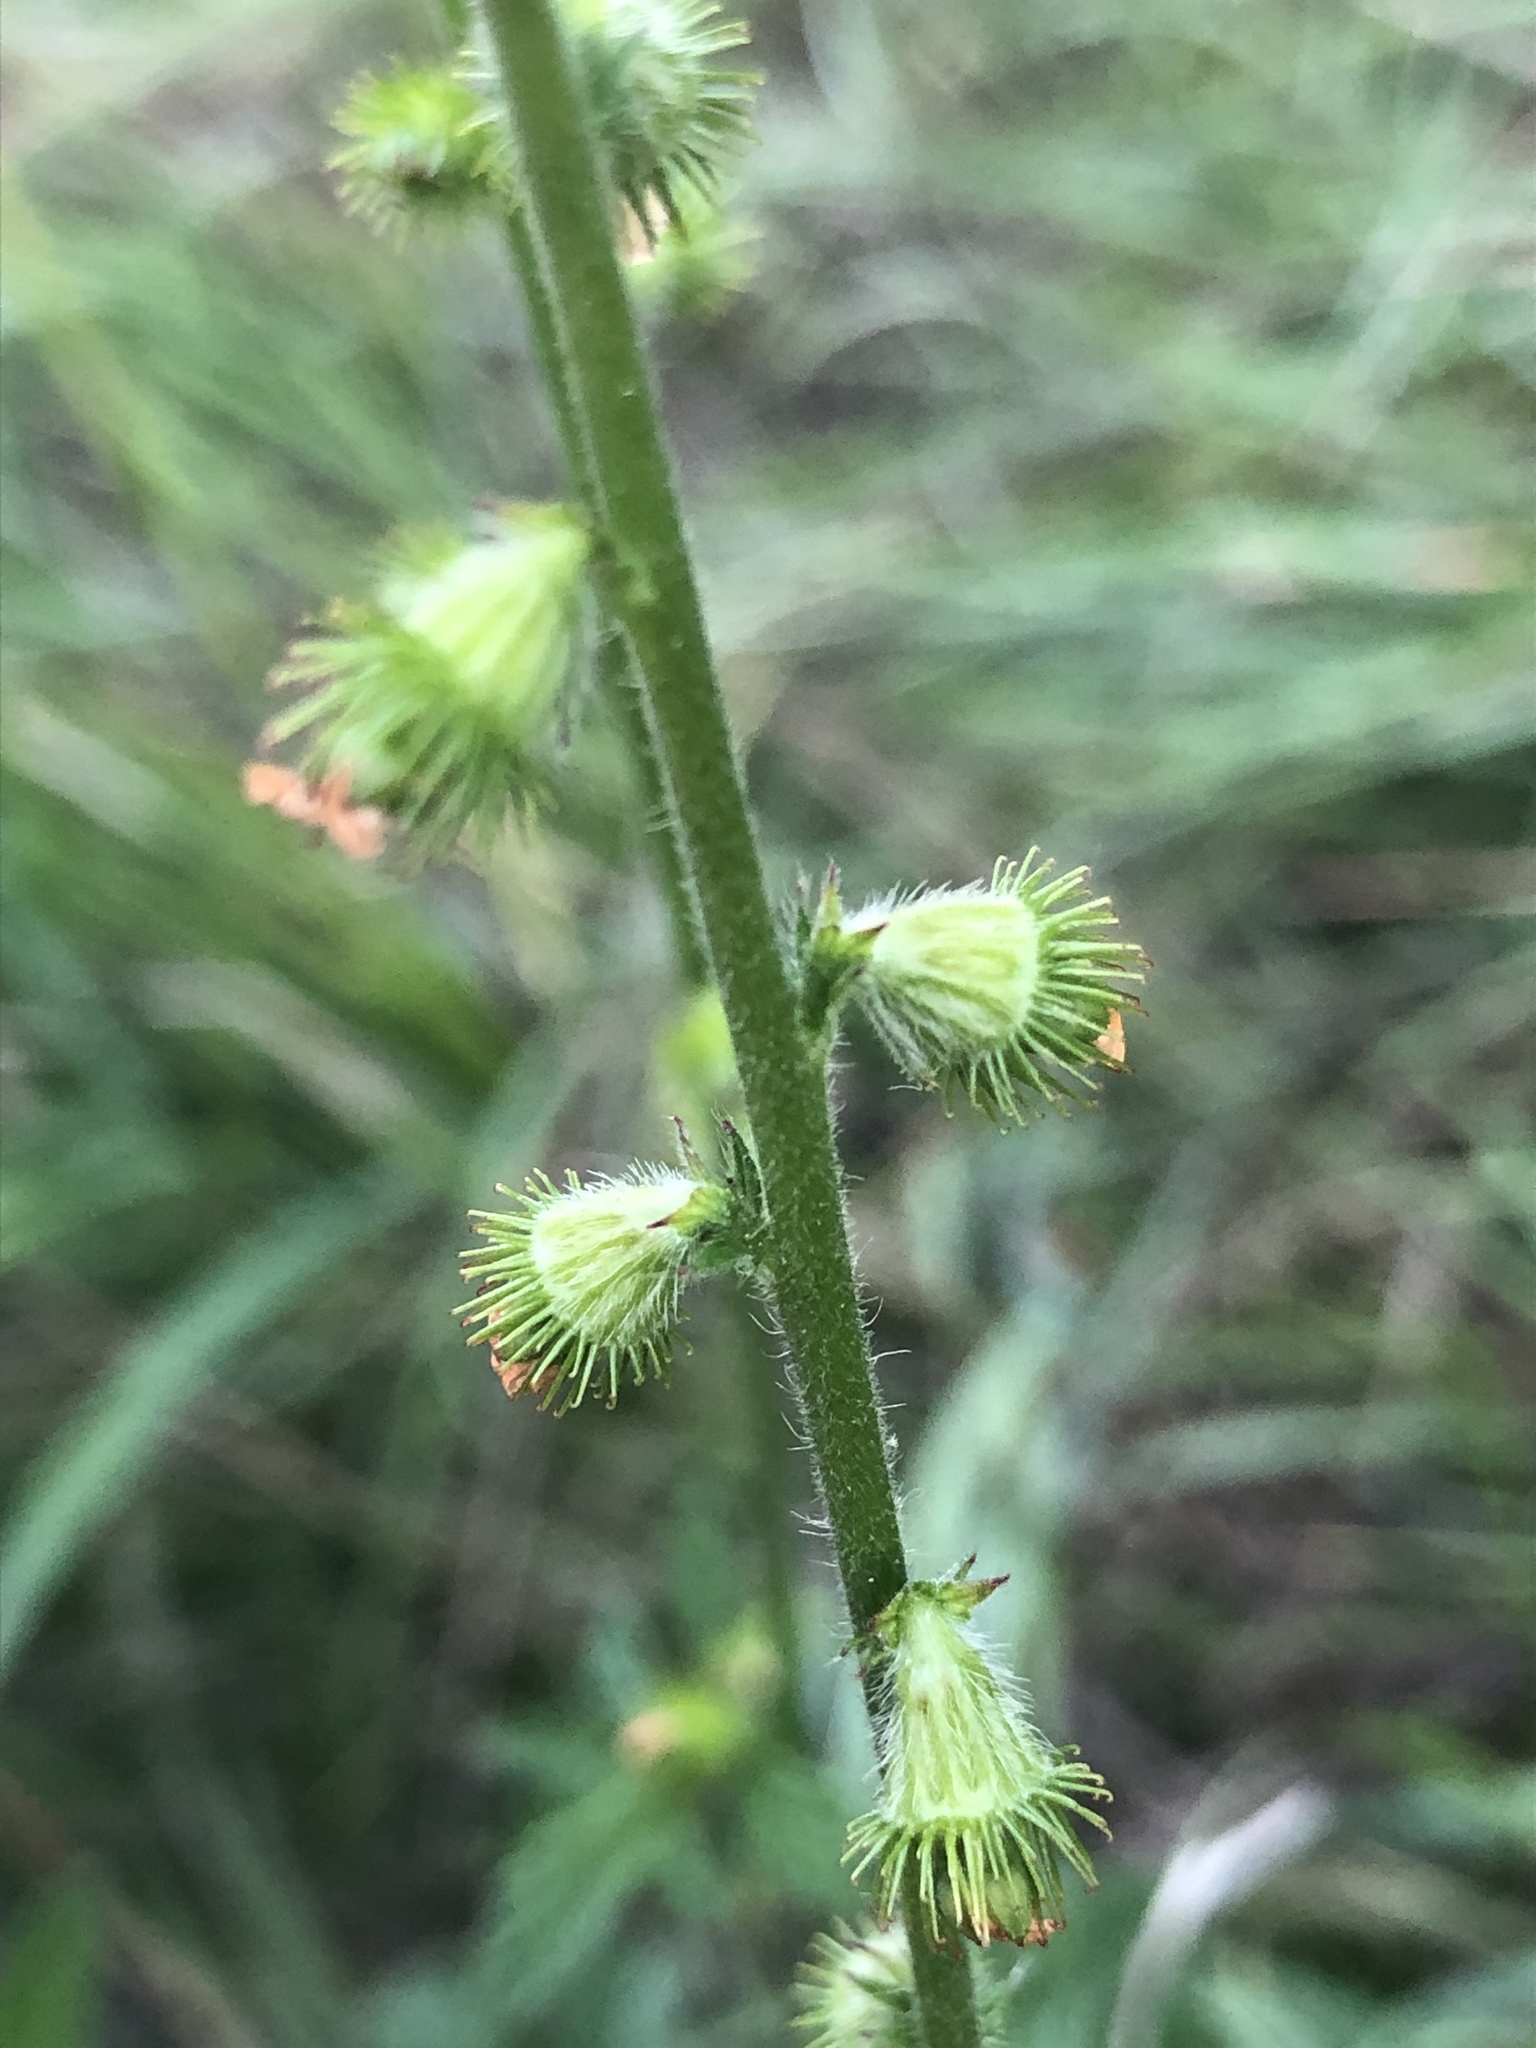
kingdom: Plantae
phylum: Tracheophyta
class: Magnoliopsida
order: Rosales
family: Rosaceae
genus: Agrimonia
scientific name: Agrimonia eupatoria
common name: Agrimony
